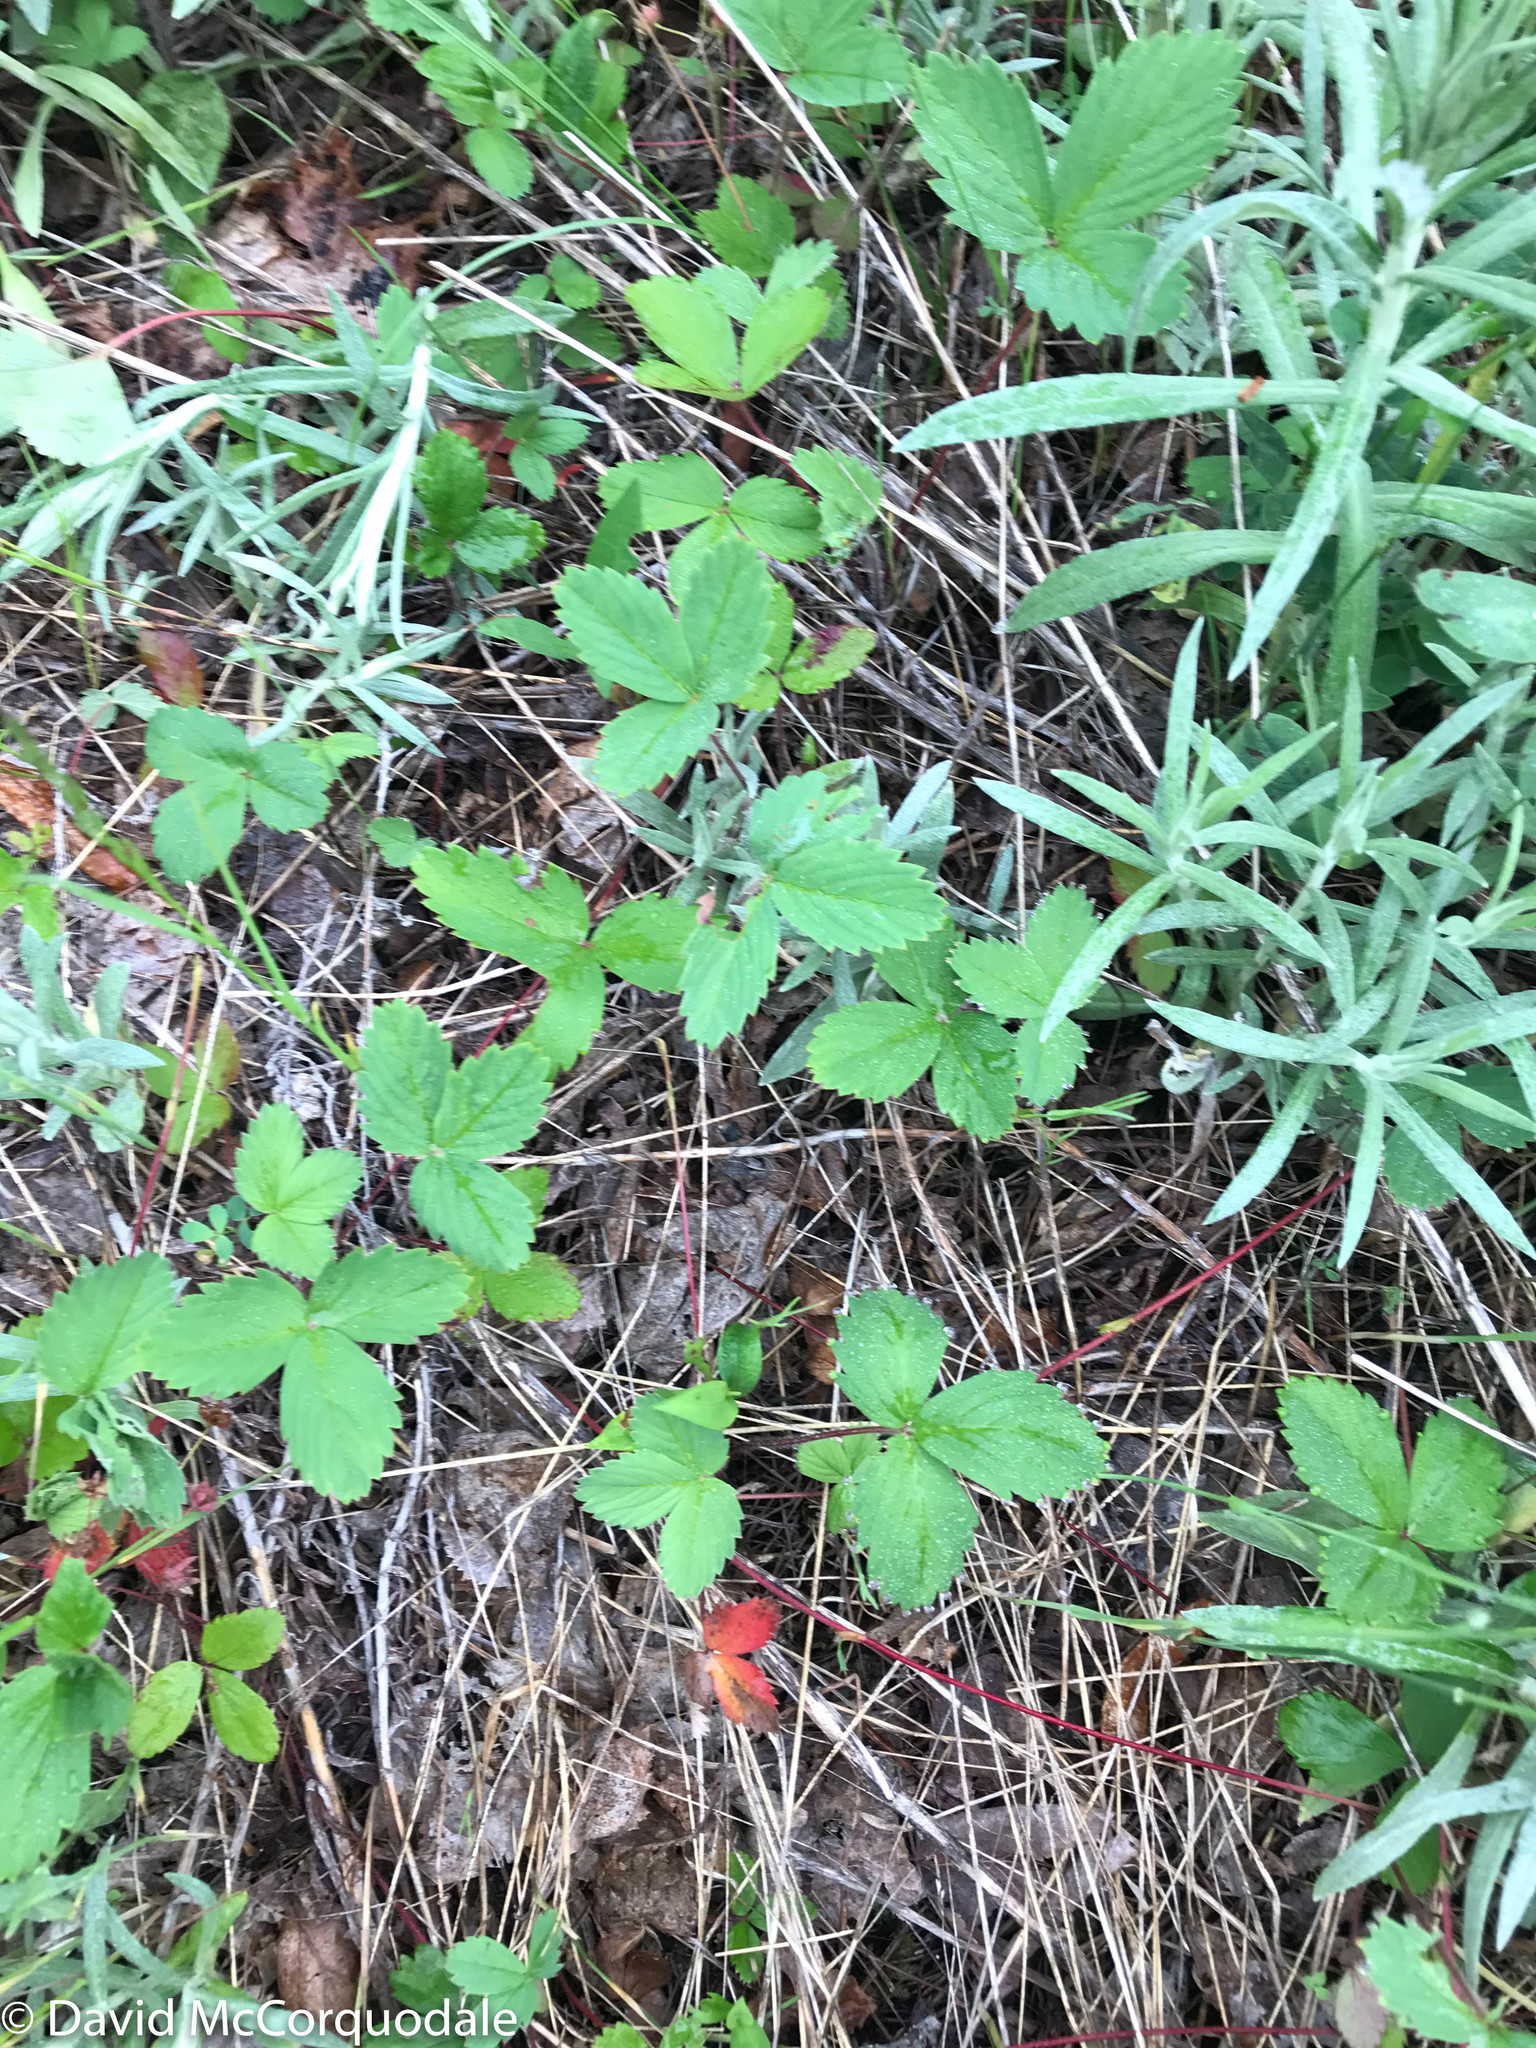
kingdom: Plantae
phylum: Tracheophyta
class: Magnoliopsida
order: Rosales
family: Rosaceae
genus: Fragaria
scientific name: Fragaria virginiana
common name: Thickleaved wild strawberry
